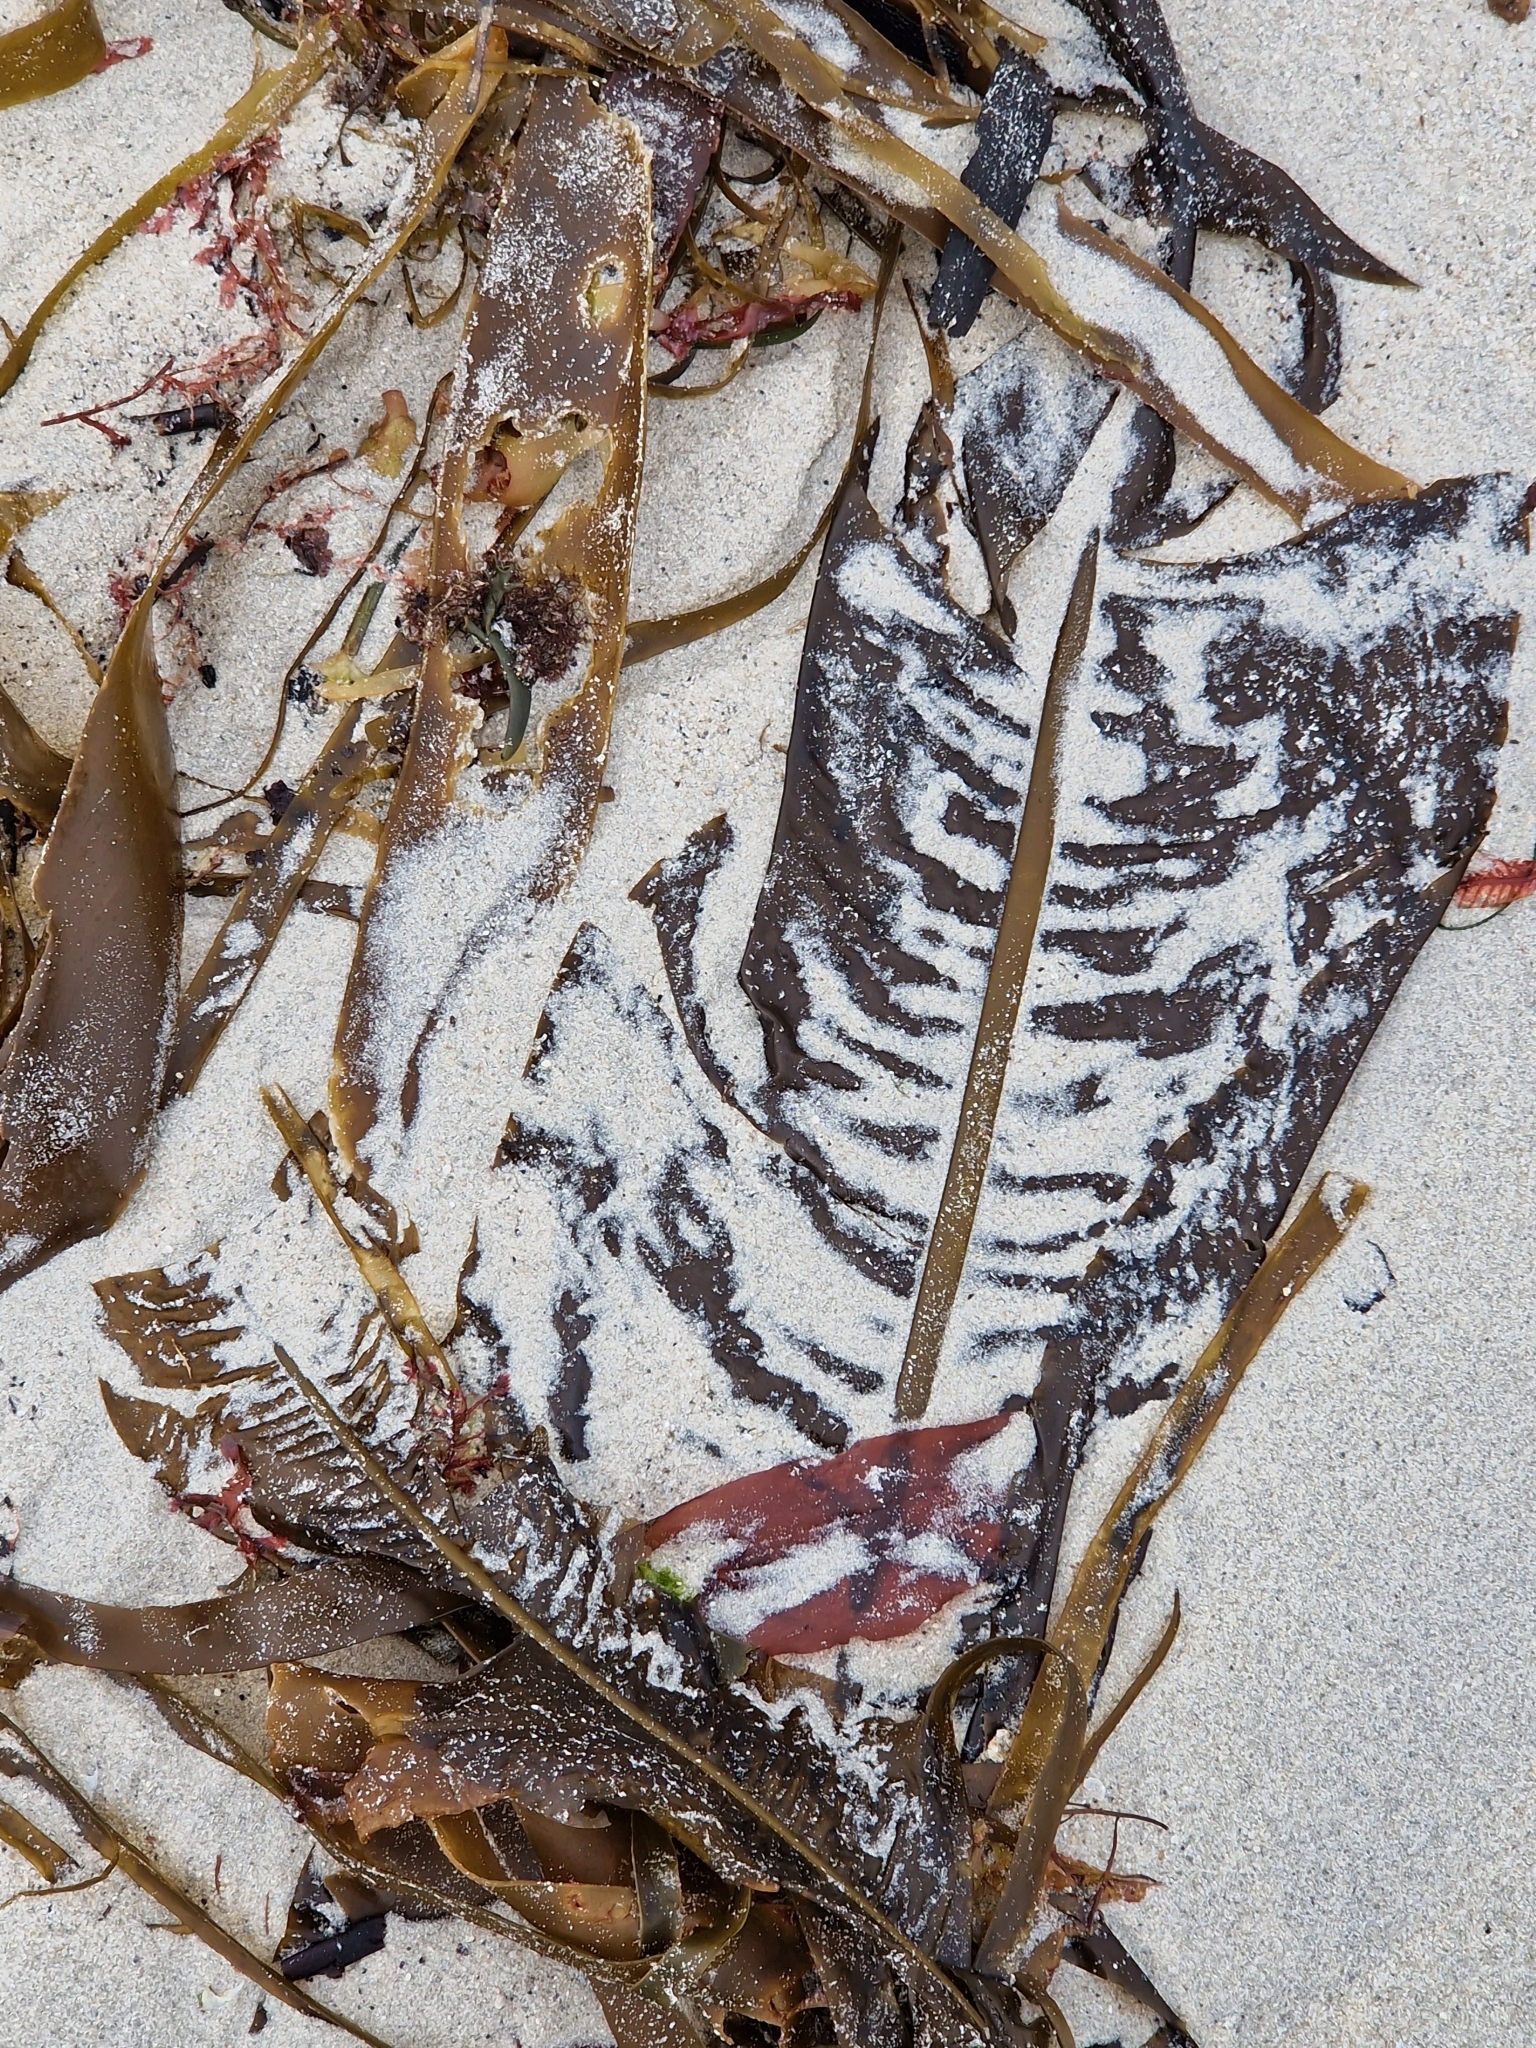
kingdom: Chromista
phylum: Ochrophyta
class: Phaeophyceae
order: Laminariales
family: Alariaceae
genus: Alaria
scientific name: Alaria esculenta
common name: Dabberlocks
